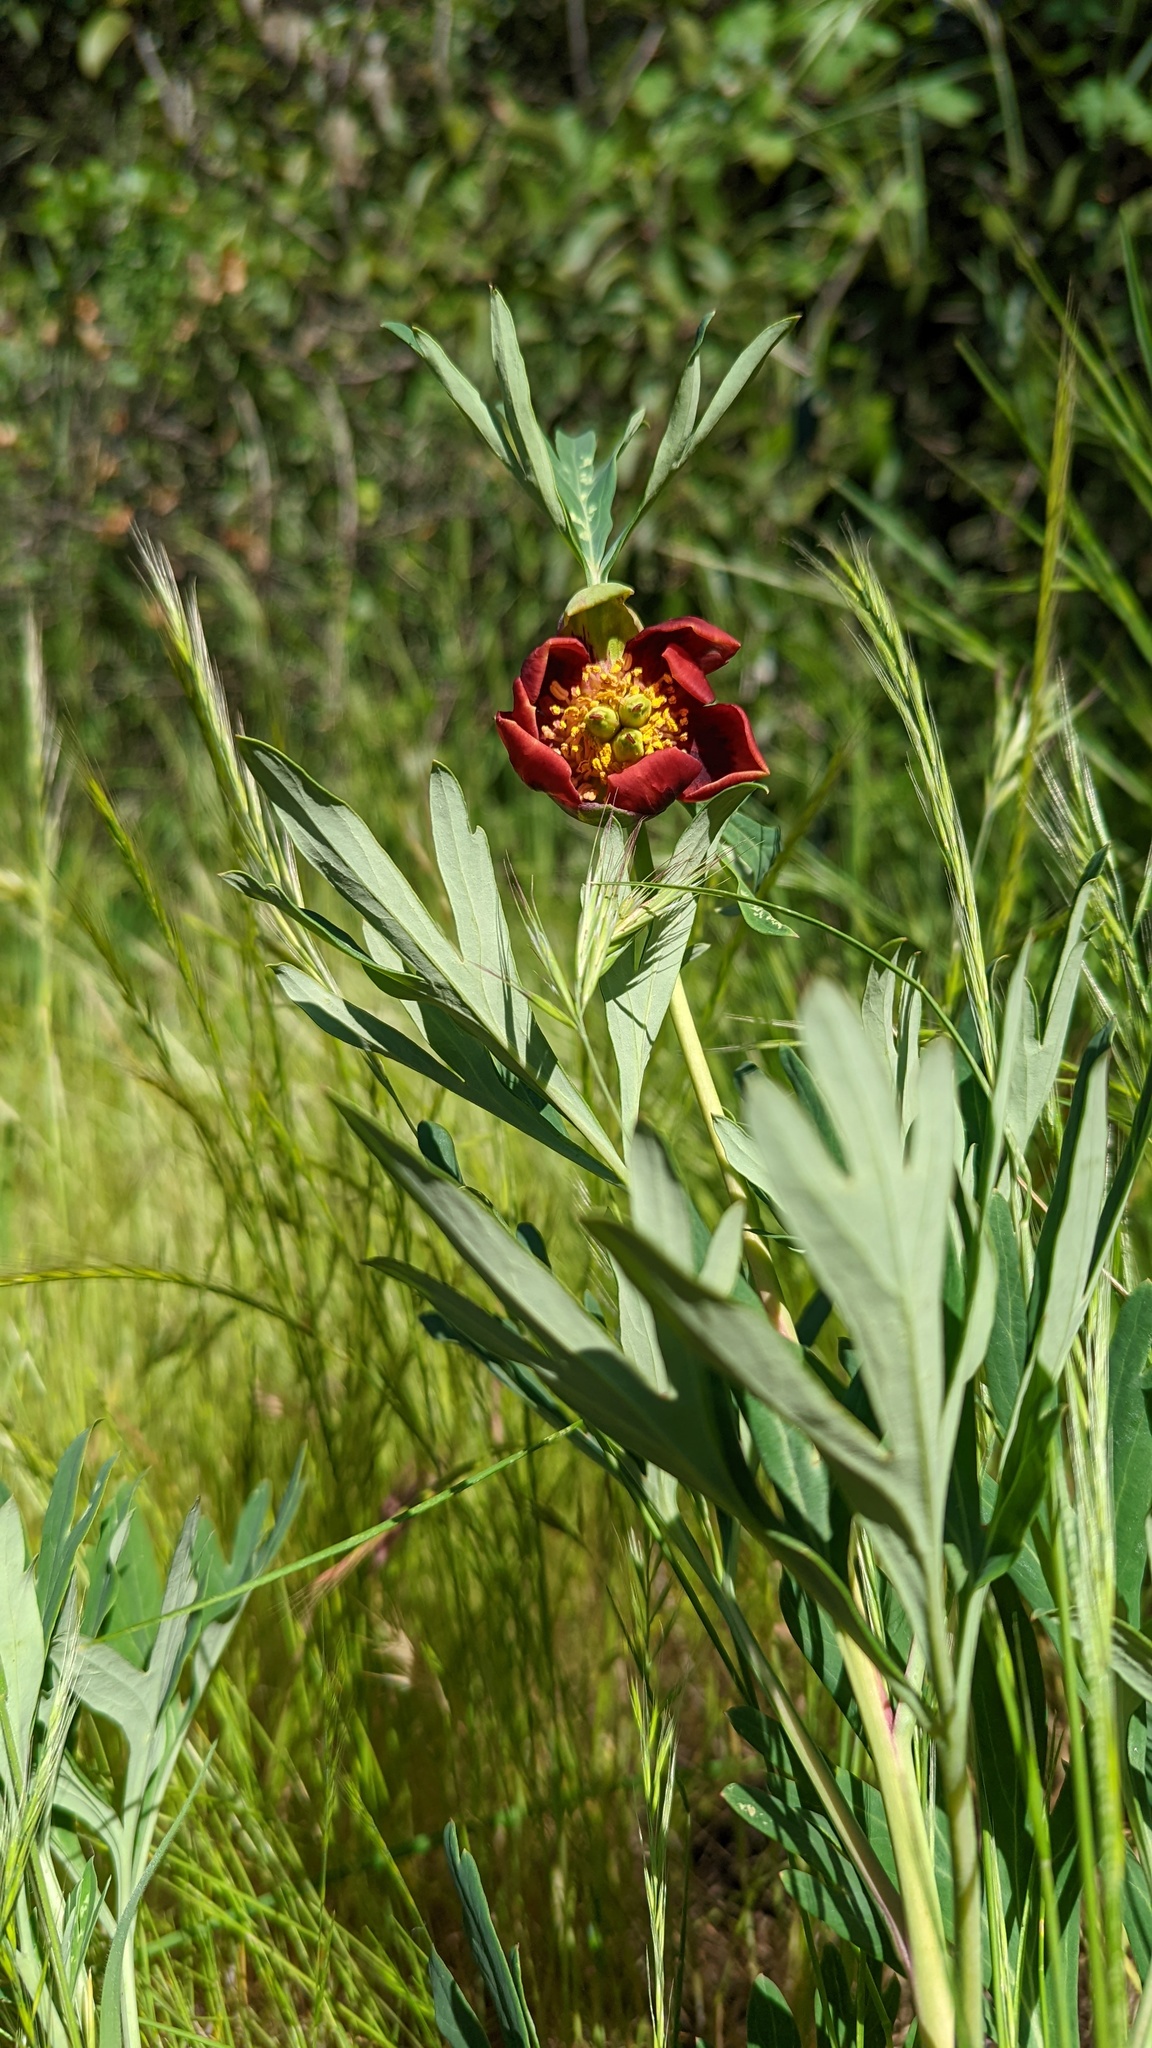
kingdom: Plantae
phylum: Tracheophyta
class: Magnoliopsida
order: Saxifragales
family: Paeoniaceae
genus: Paeonia
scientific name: Paeonia californica
